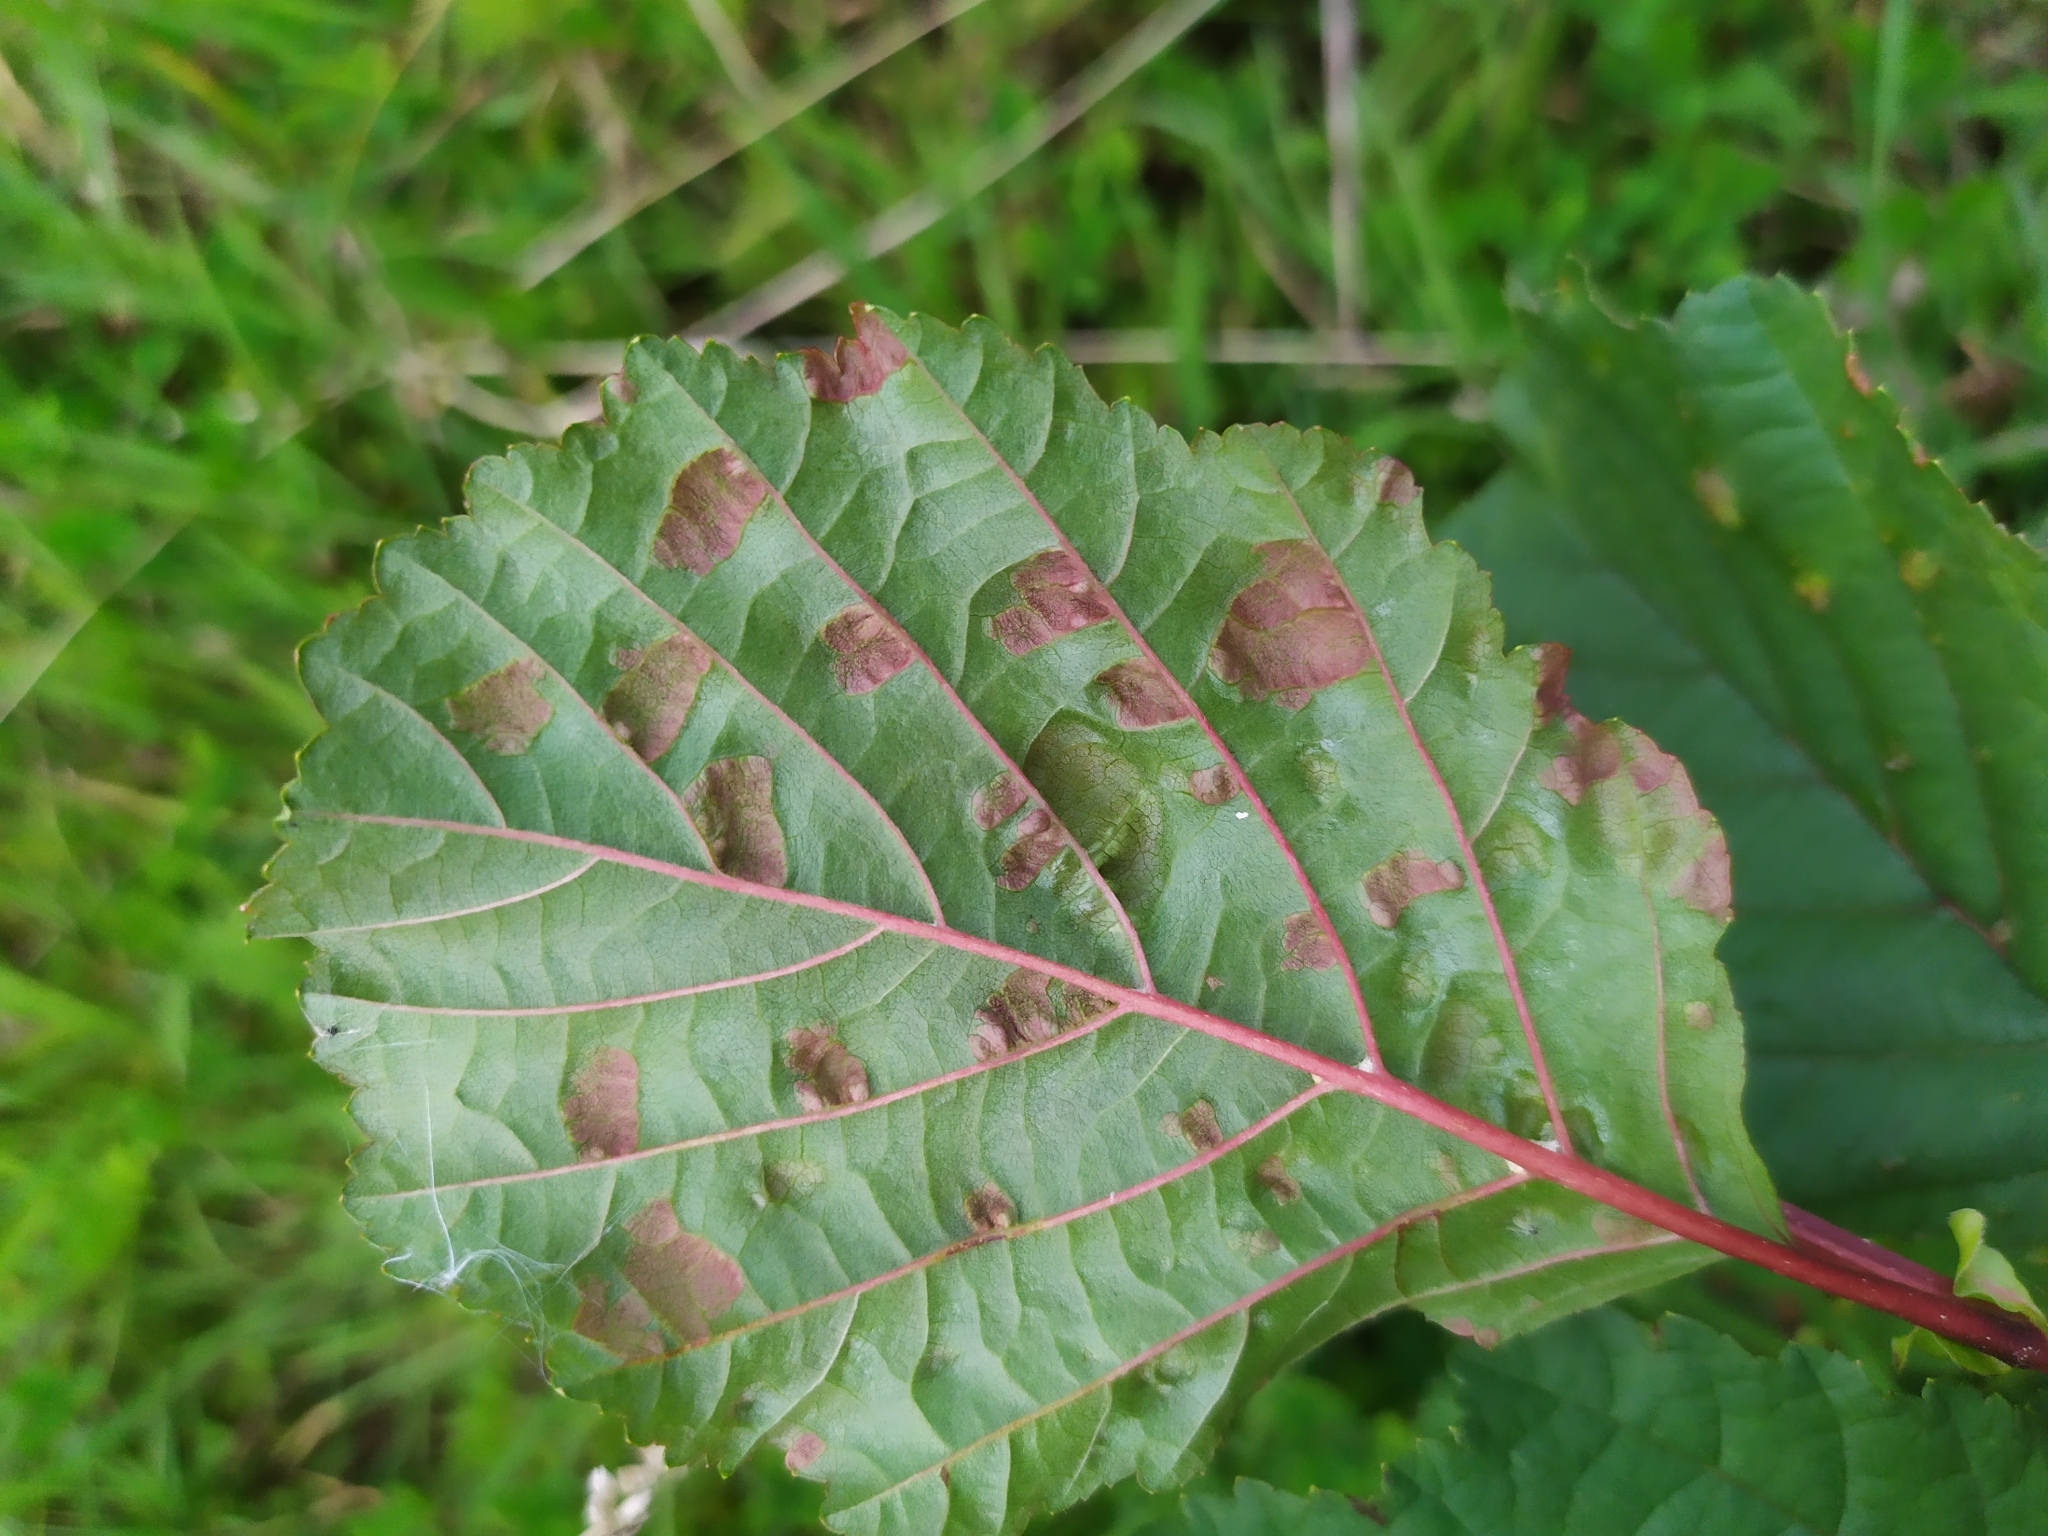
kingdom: Fungi
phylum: Ascomycota
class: Taphrinomycetes
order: Taphrinales
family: Taphrinaceae
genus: Taphrina
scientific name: Taphrina sadebeckii
